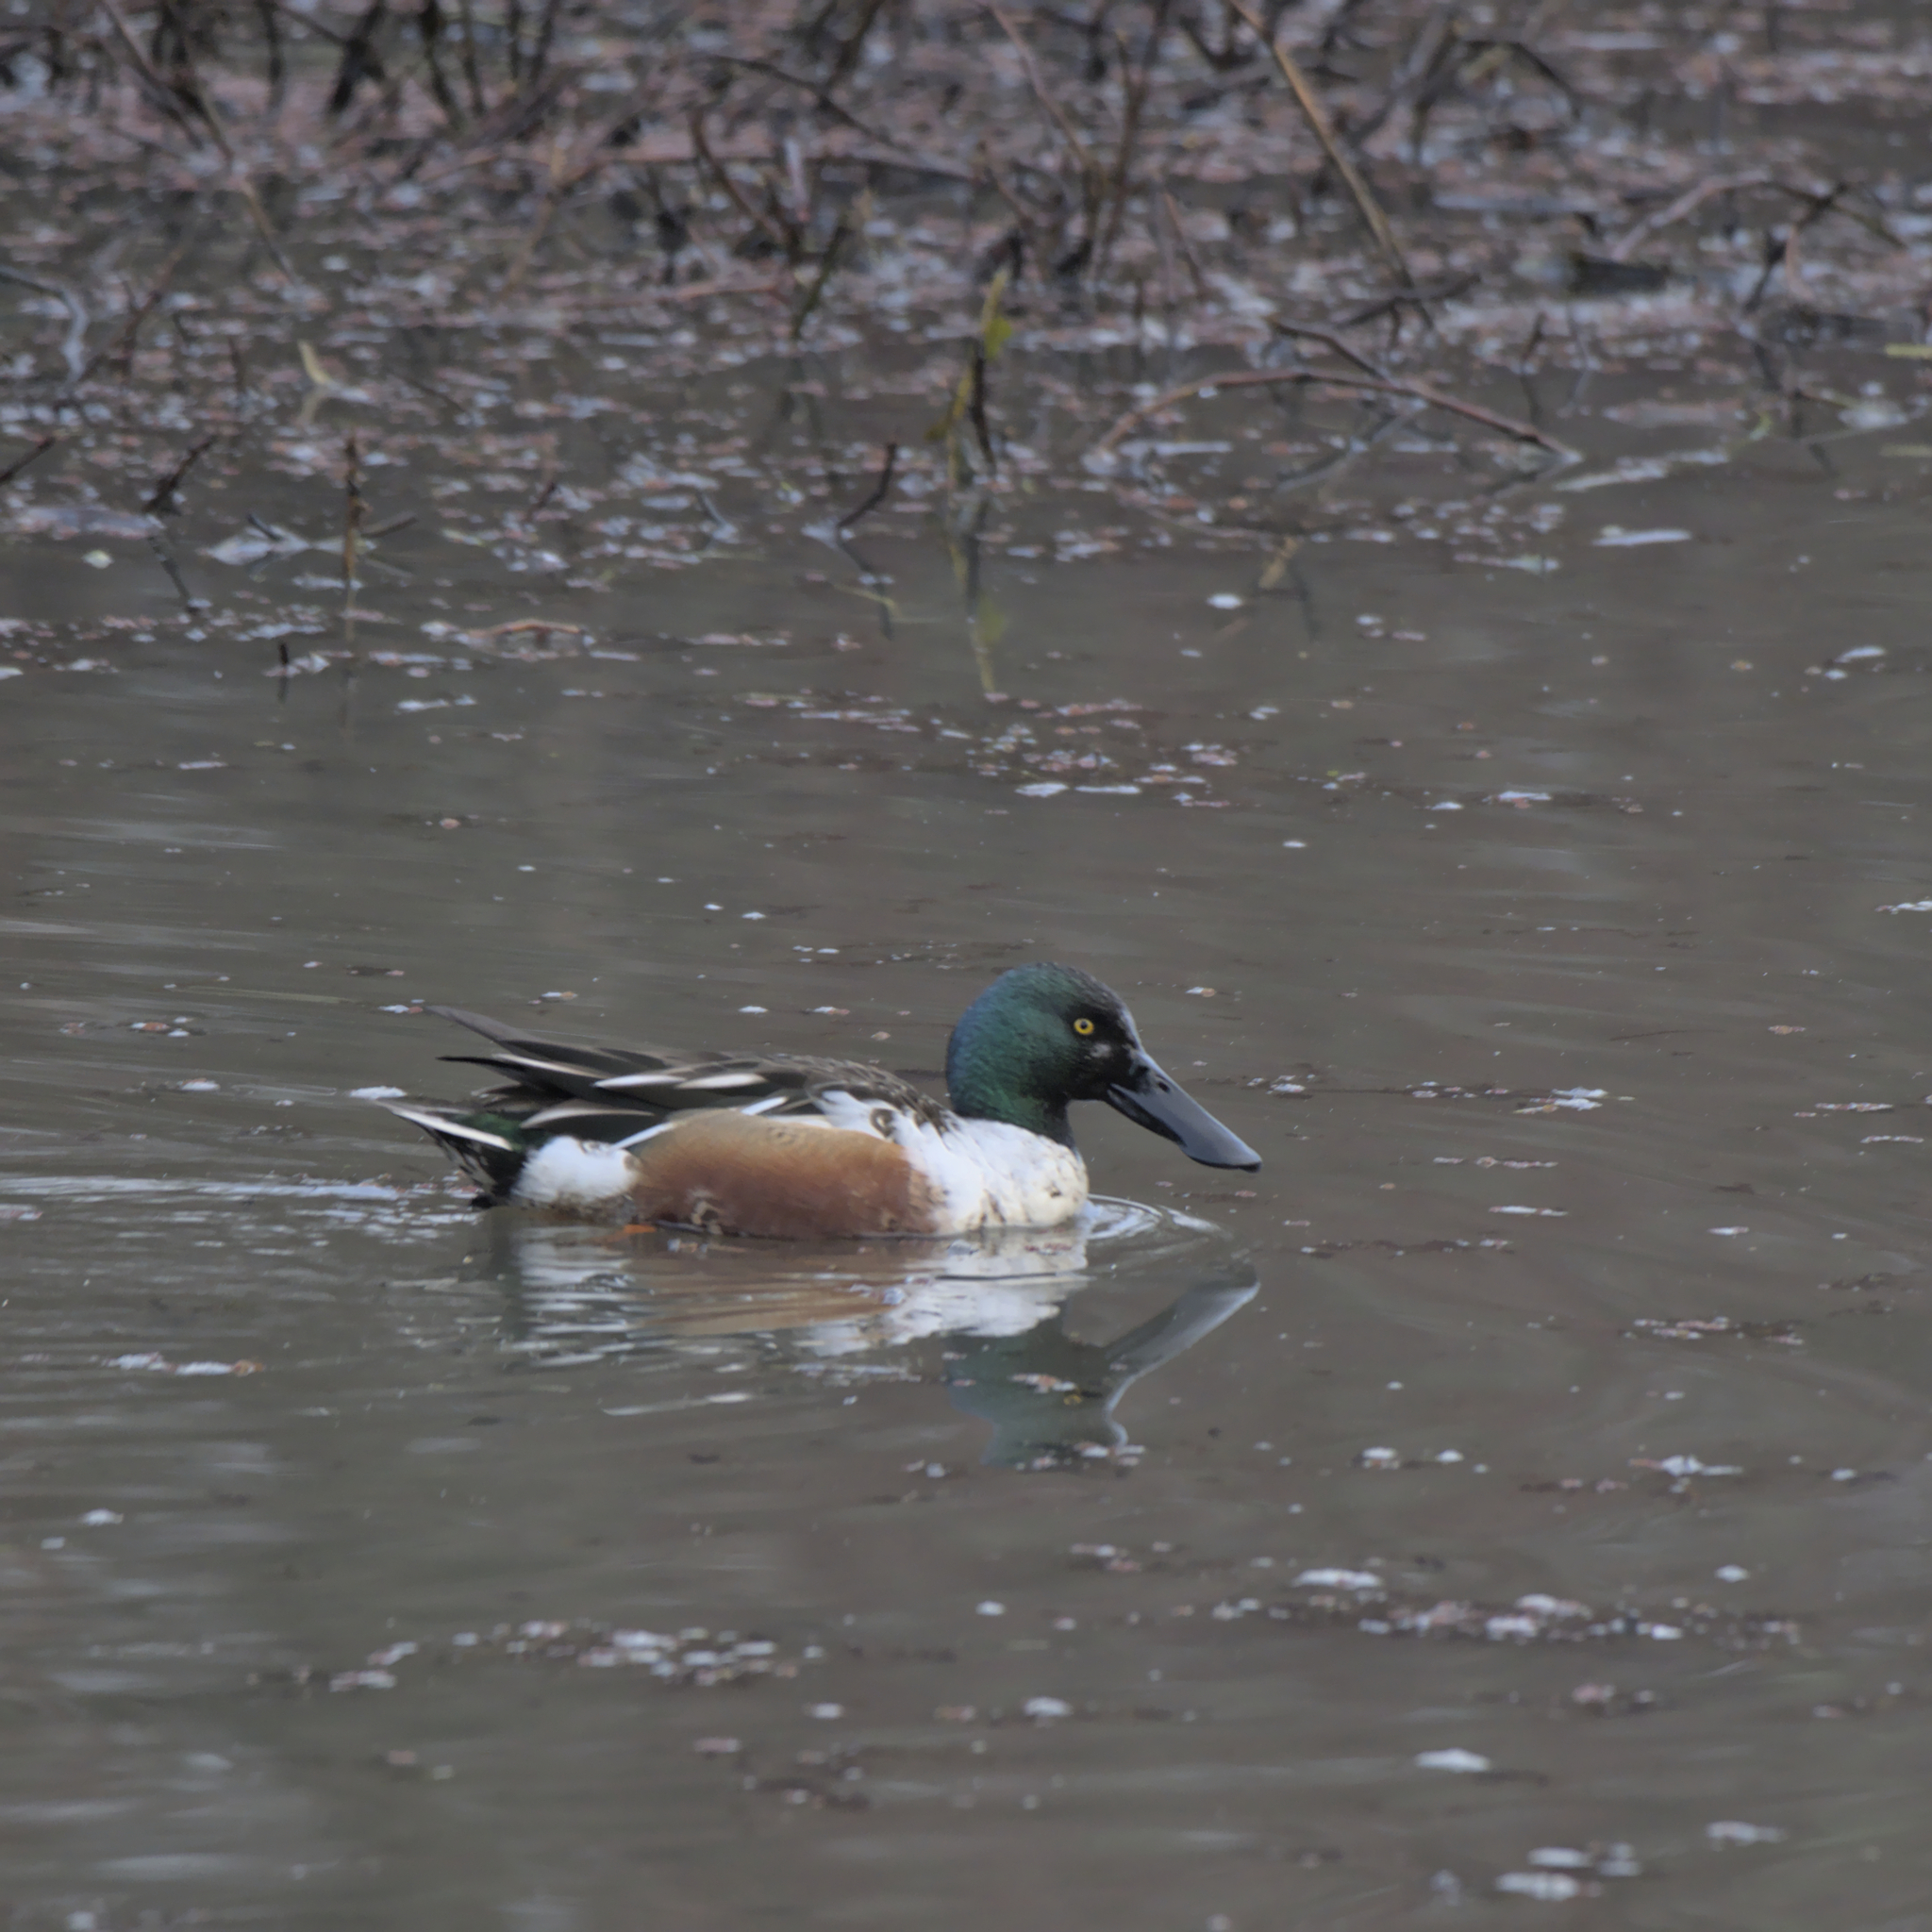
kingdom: Animalia
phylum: Chordata
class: Aves
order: Anseriformes
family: Anatidae
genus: Spatula
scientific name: Spatula clypeata
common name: Northern shoveler
